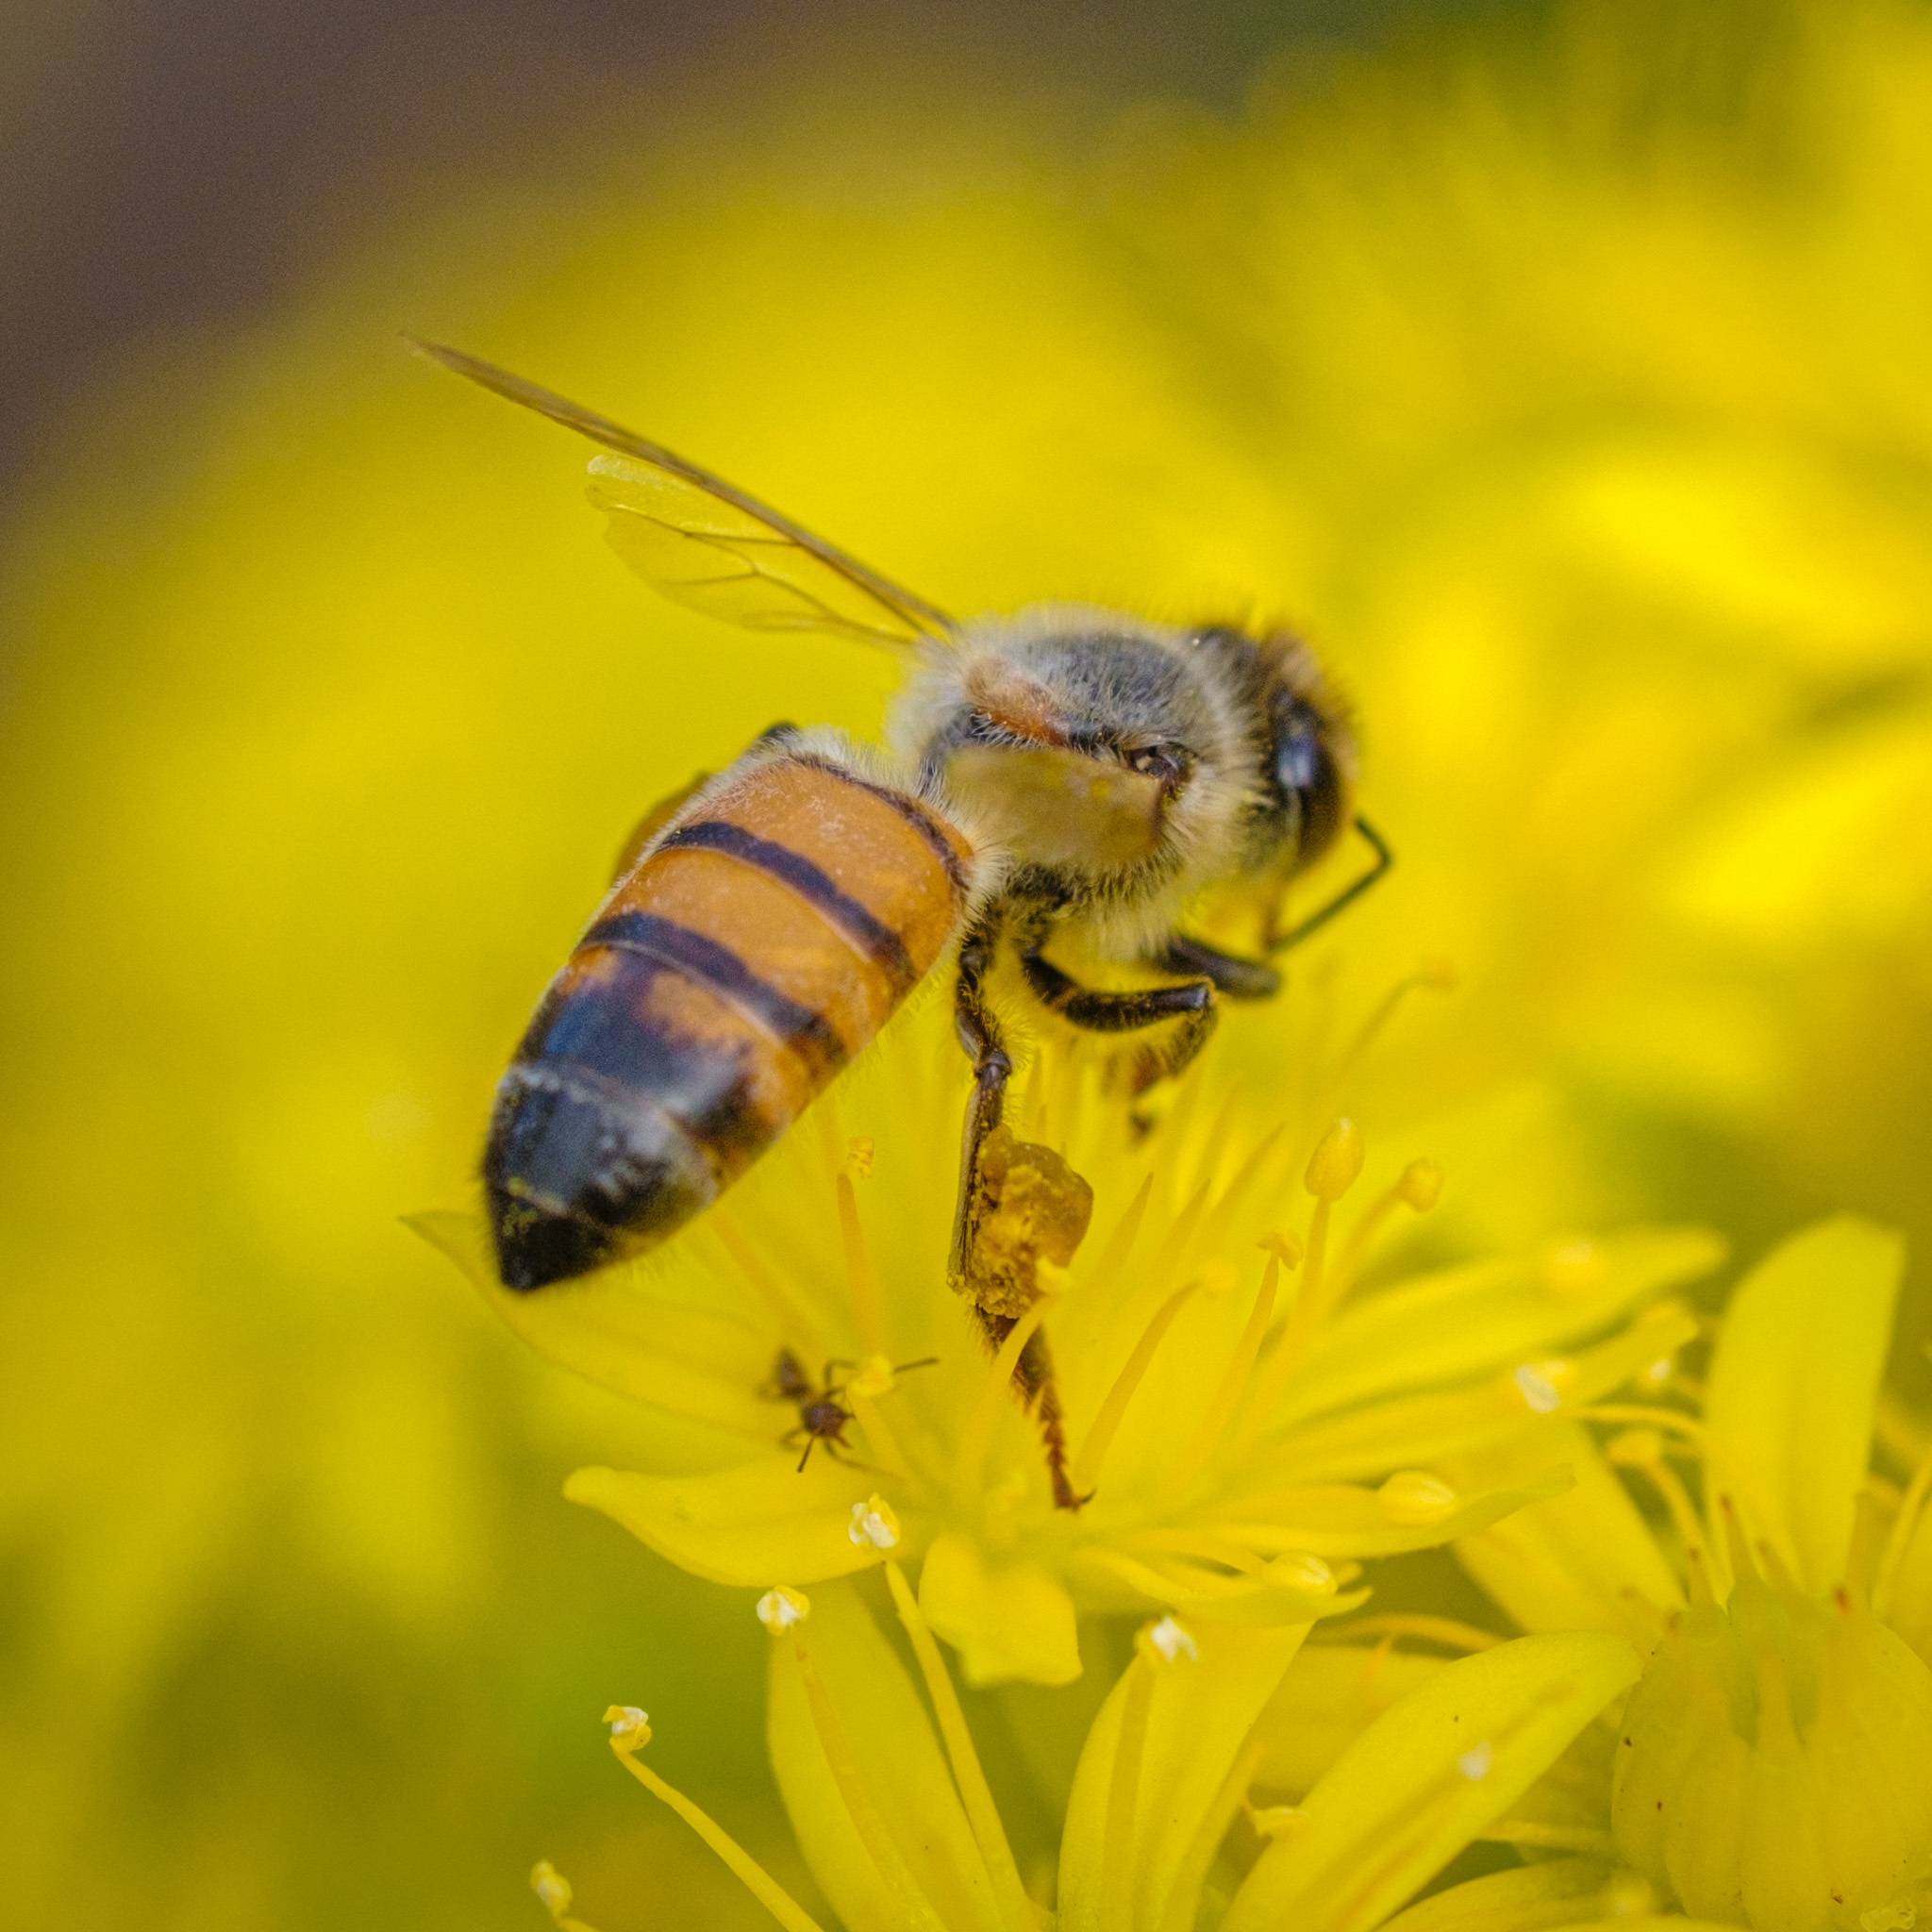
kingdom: Animalia
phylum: Arthropoda
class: Insecta
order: Hymenoptera
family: Apidae
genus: Apis
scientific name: Apis mellifera
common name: Honey bee
